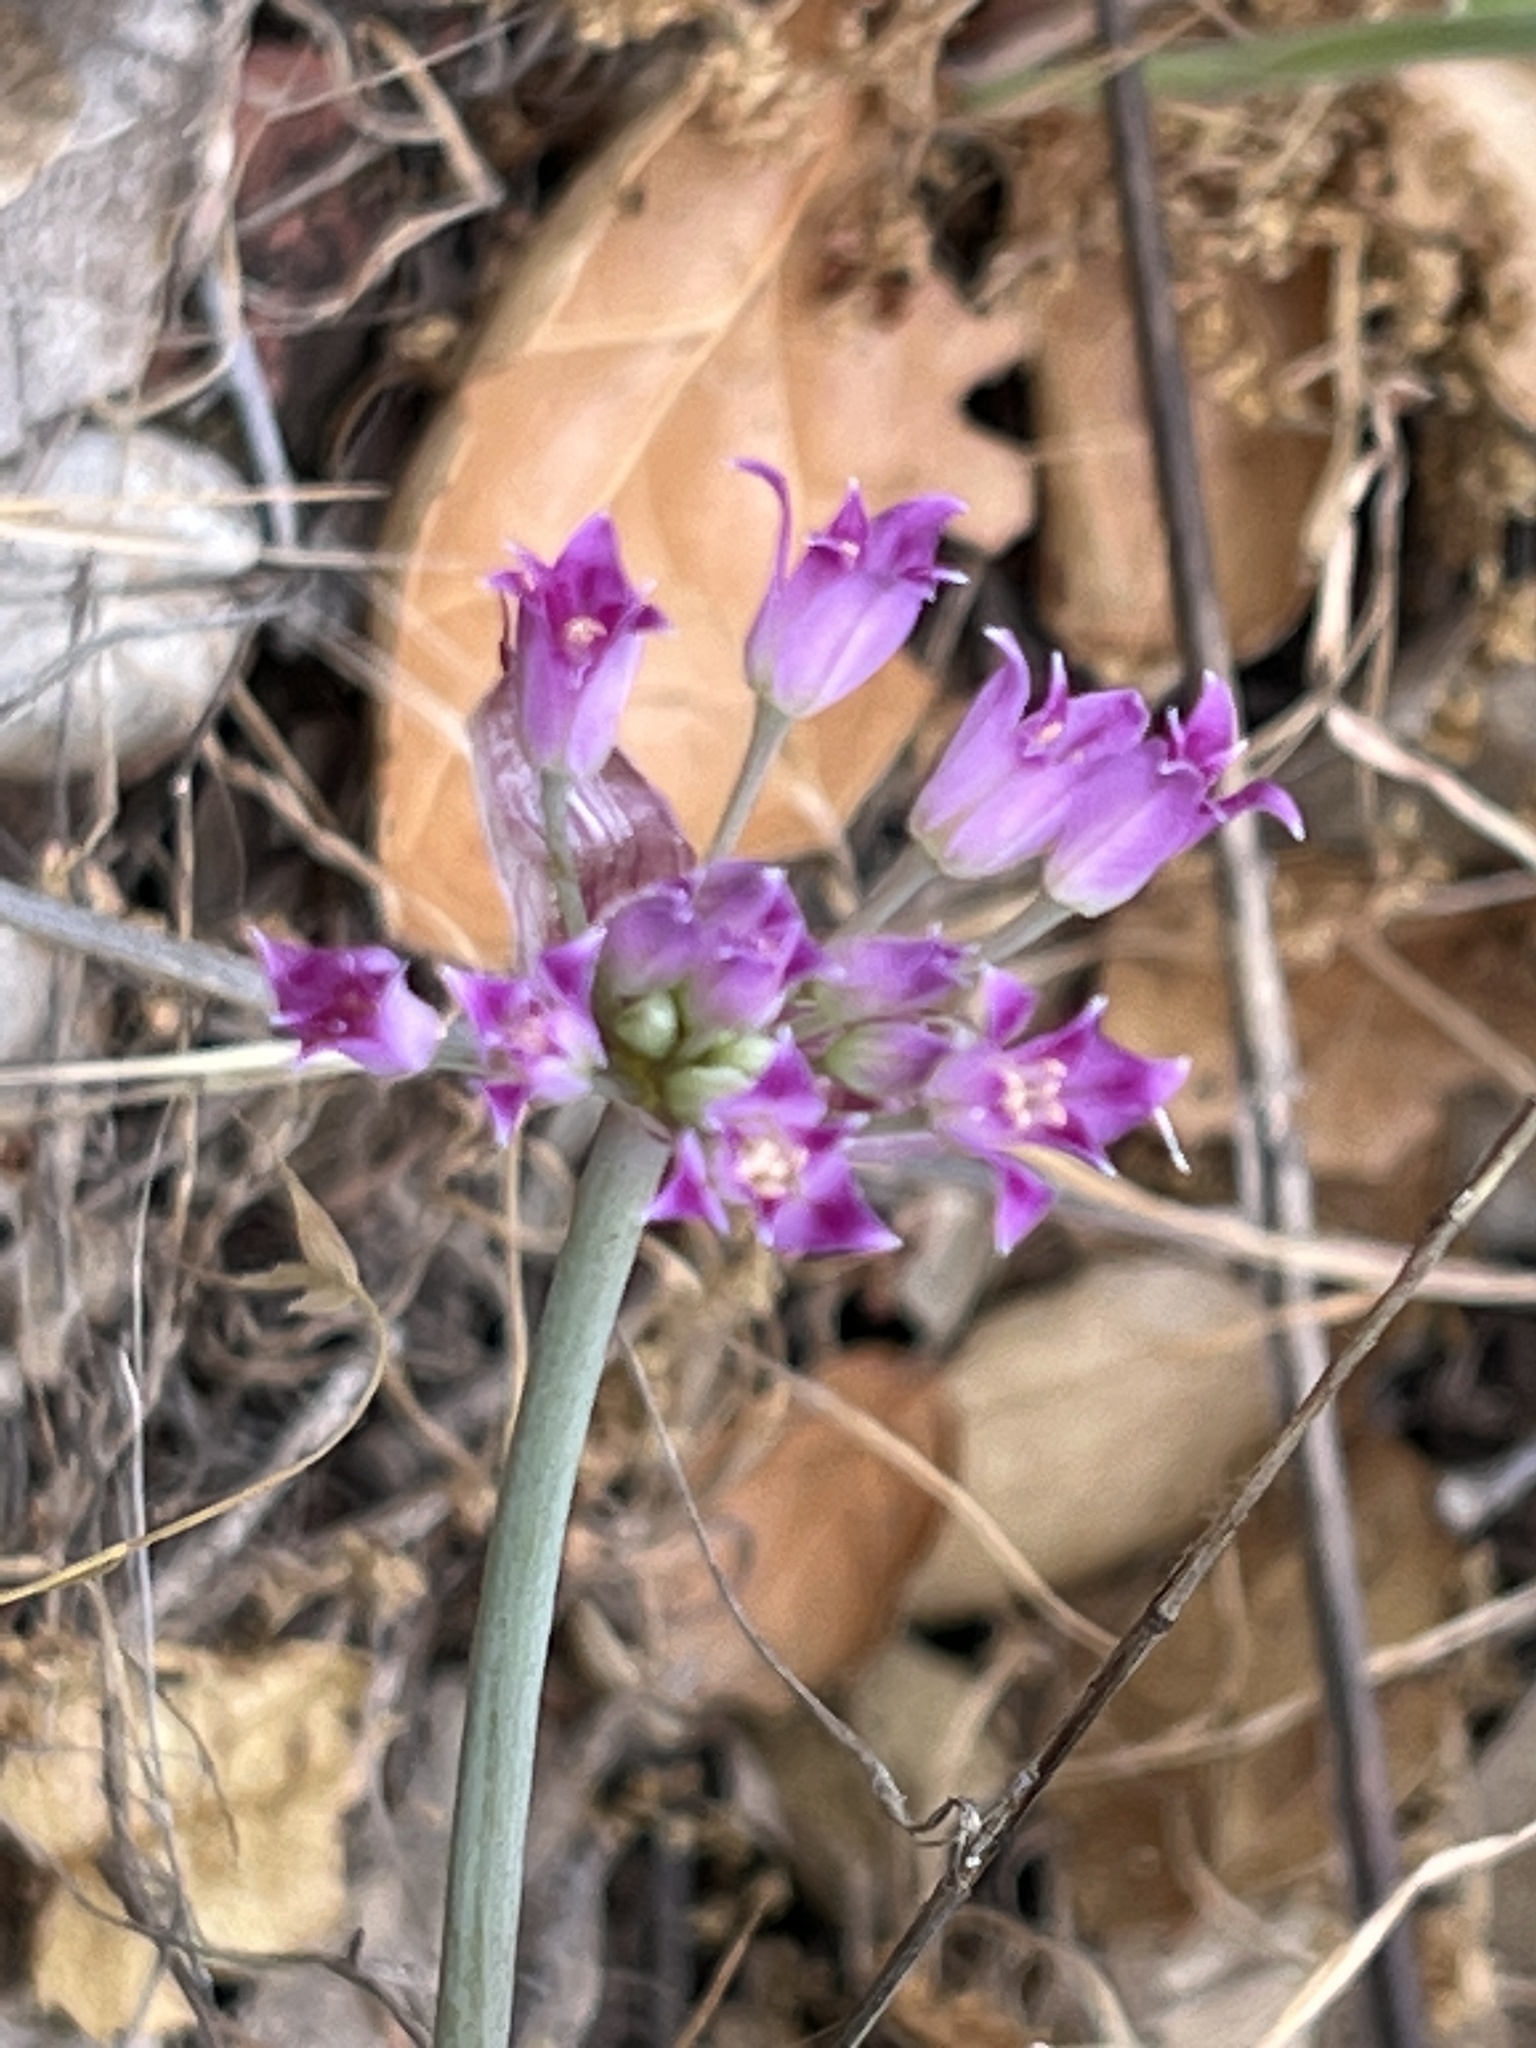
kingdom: Plantae
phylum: Tracheophyta
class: Liliopsida
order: Asparagales
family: Amaryllidaceae
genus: Allium
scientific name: Allium serra
